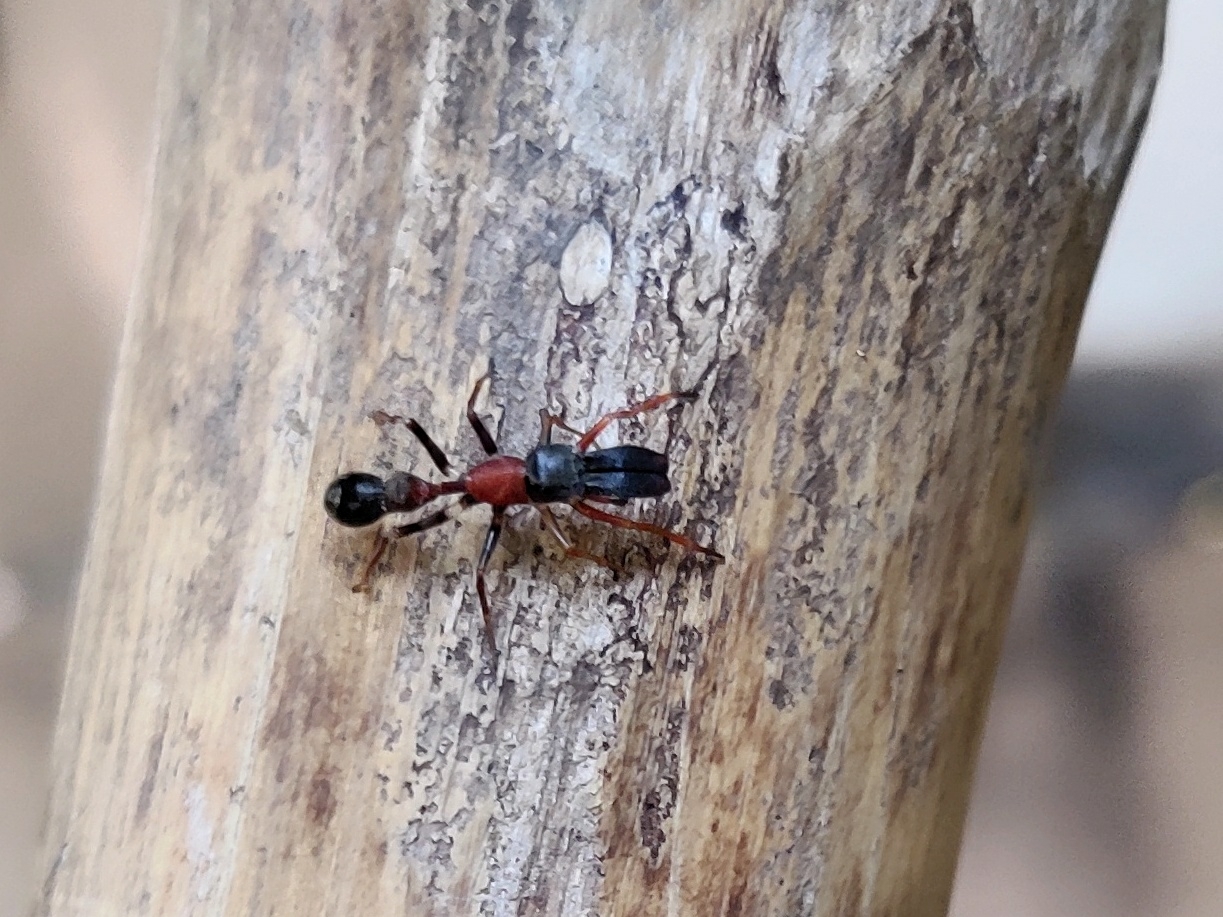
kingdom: Animalia
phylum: Arthropoda
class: Arachnida
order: Araneae
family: Salticidae
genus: Myrmarachne
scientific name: Myrmarachne melanocephala
